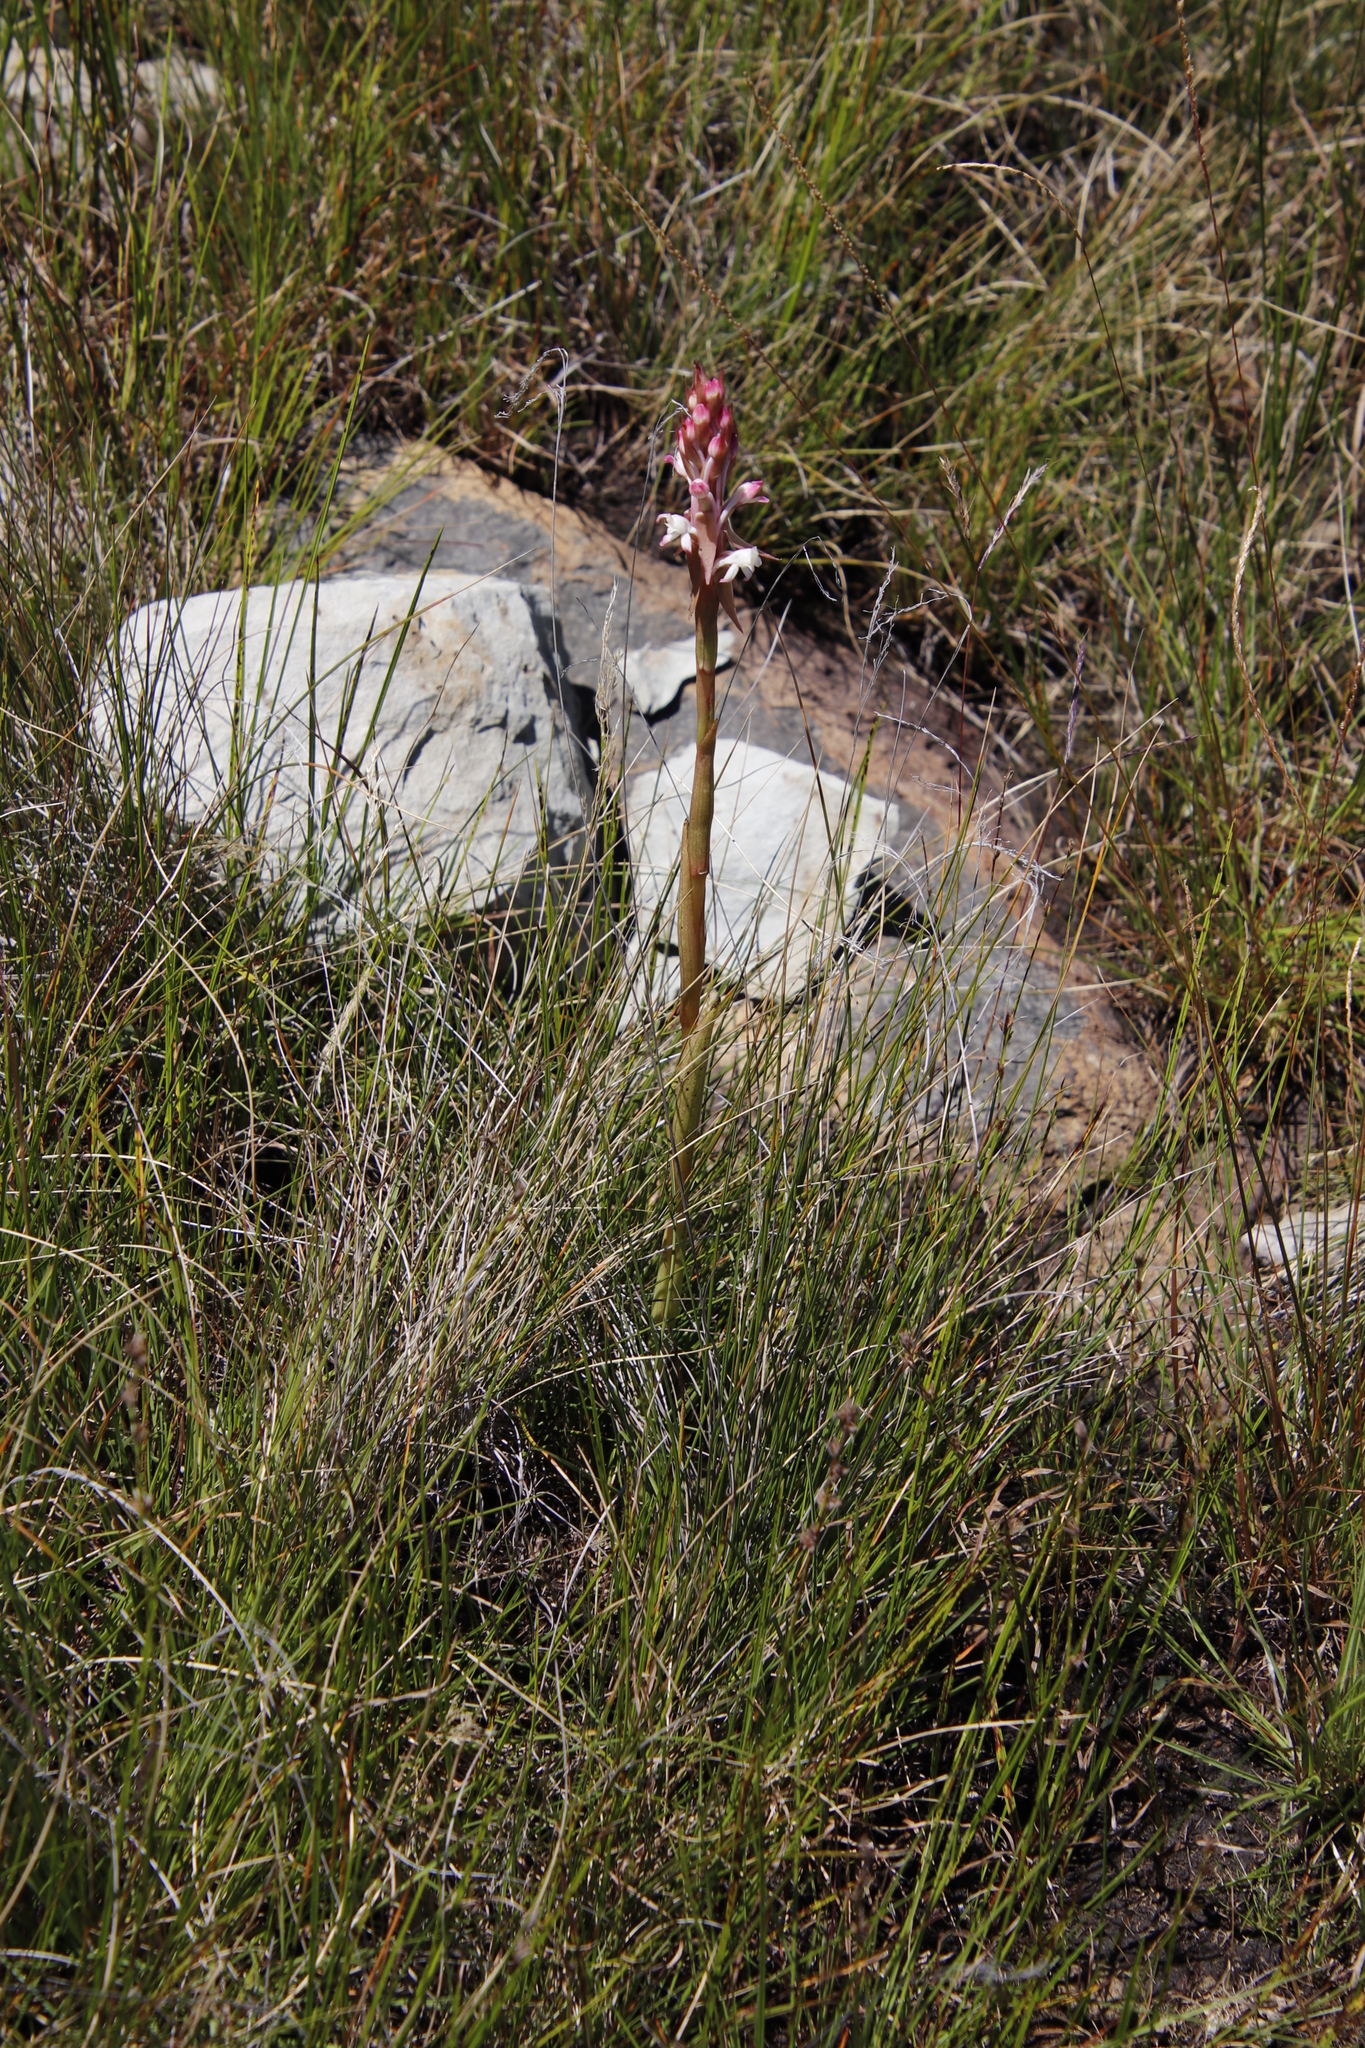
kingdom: Plantae
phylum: Tracheophyta
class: Liliopsida
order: Asparagales
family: Orchidaceae
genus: Satyrium
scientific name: Satyrium longicauda
